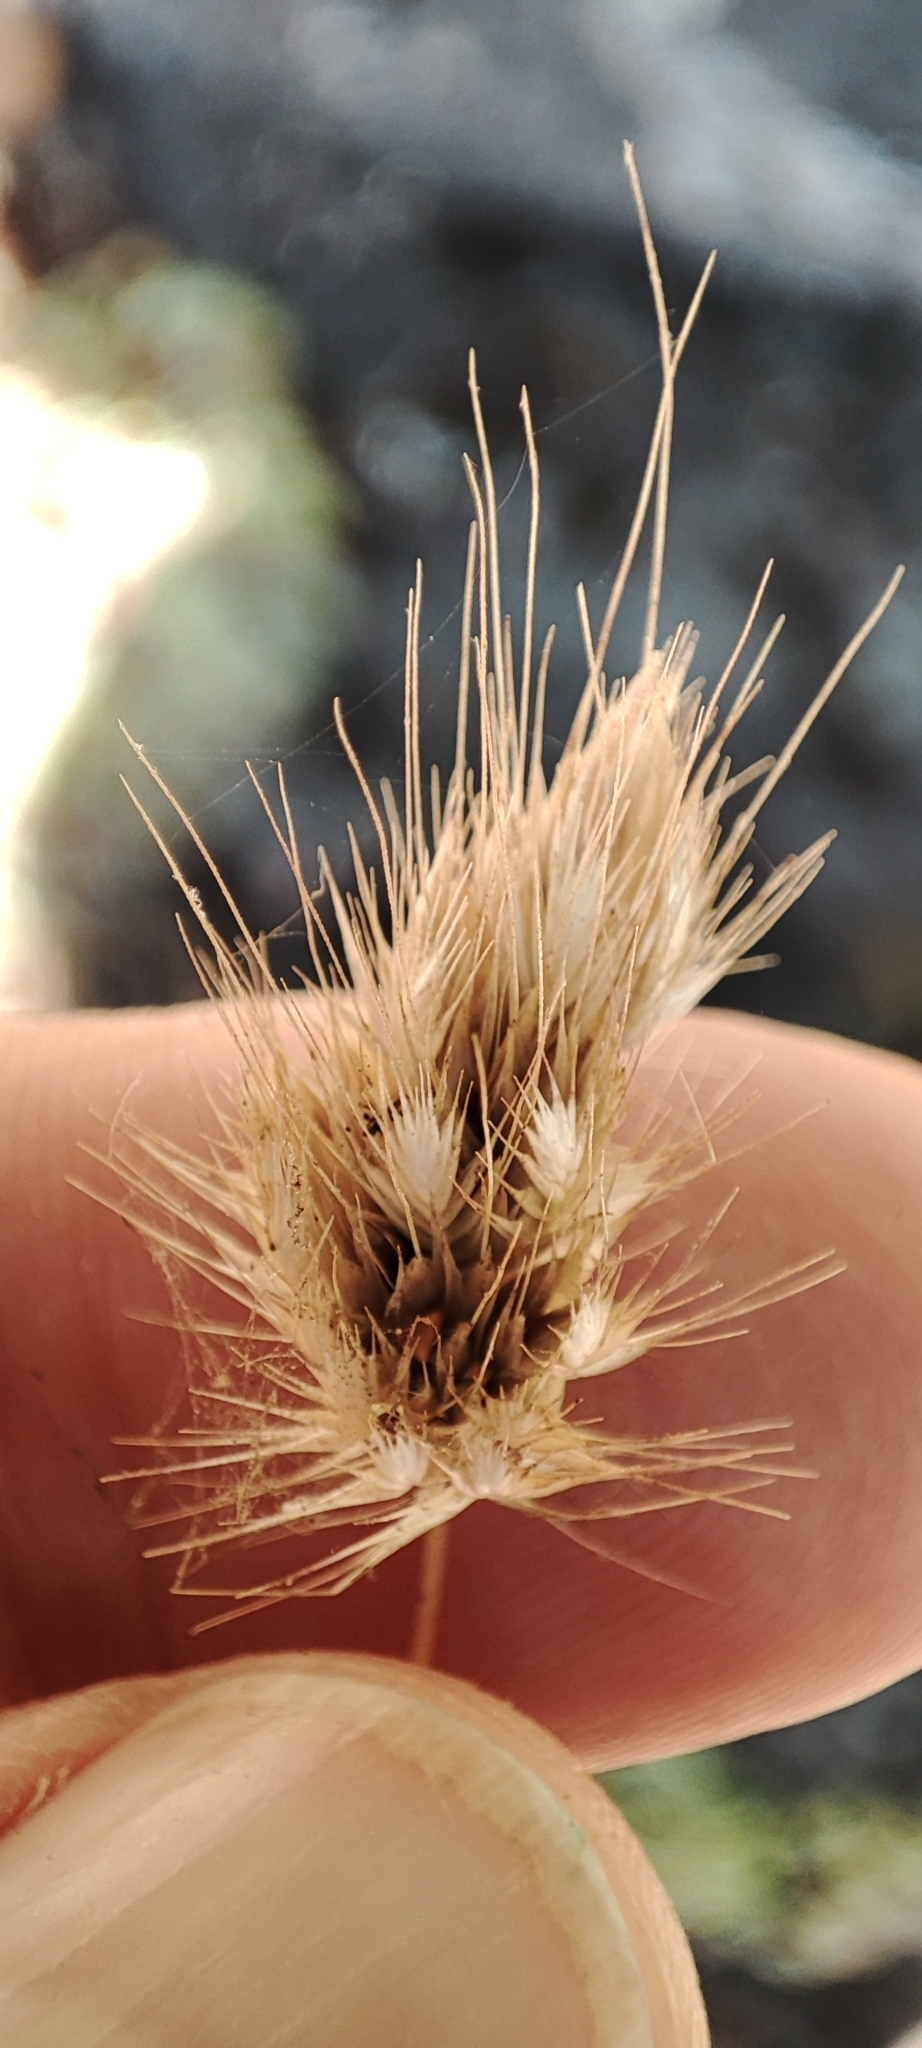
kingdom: Plantae
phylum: Tracheophyta
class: Liliopsida
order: Poales
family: Poaceae
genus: Cynosurus
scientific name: Cynosurus echinatus
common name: Rough dog's-tail
